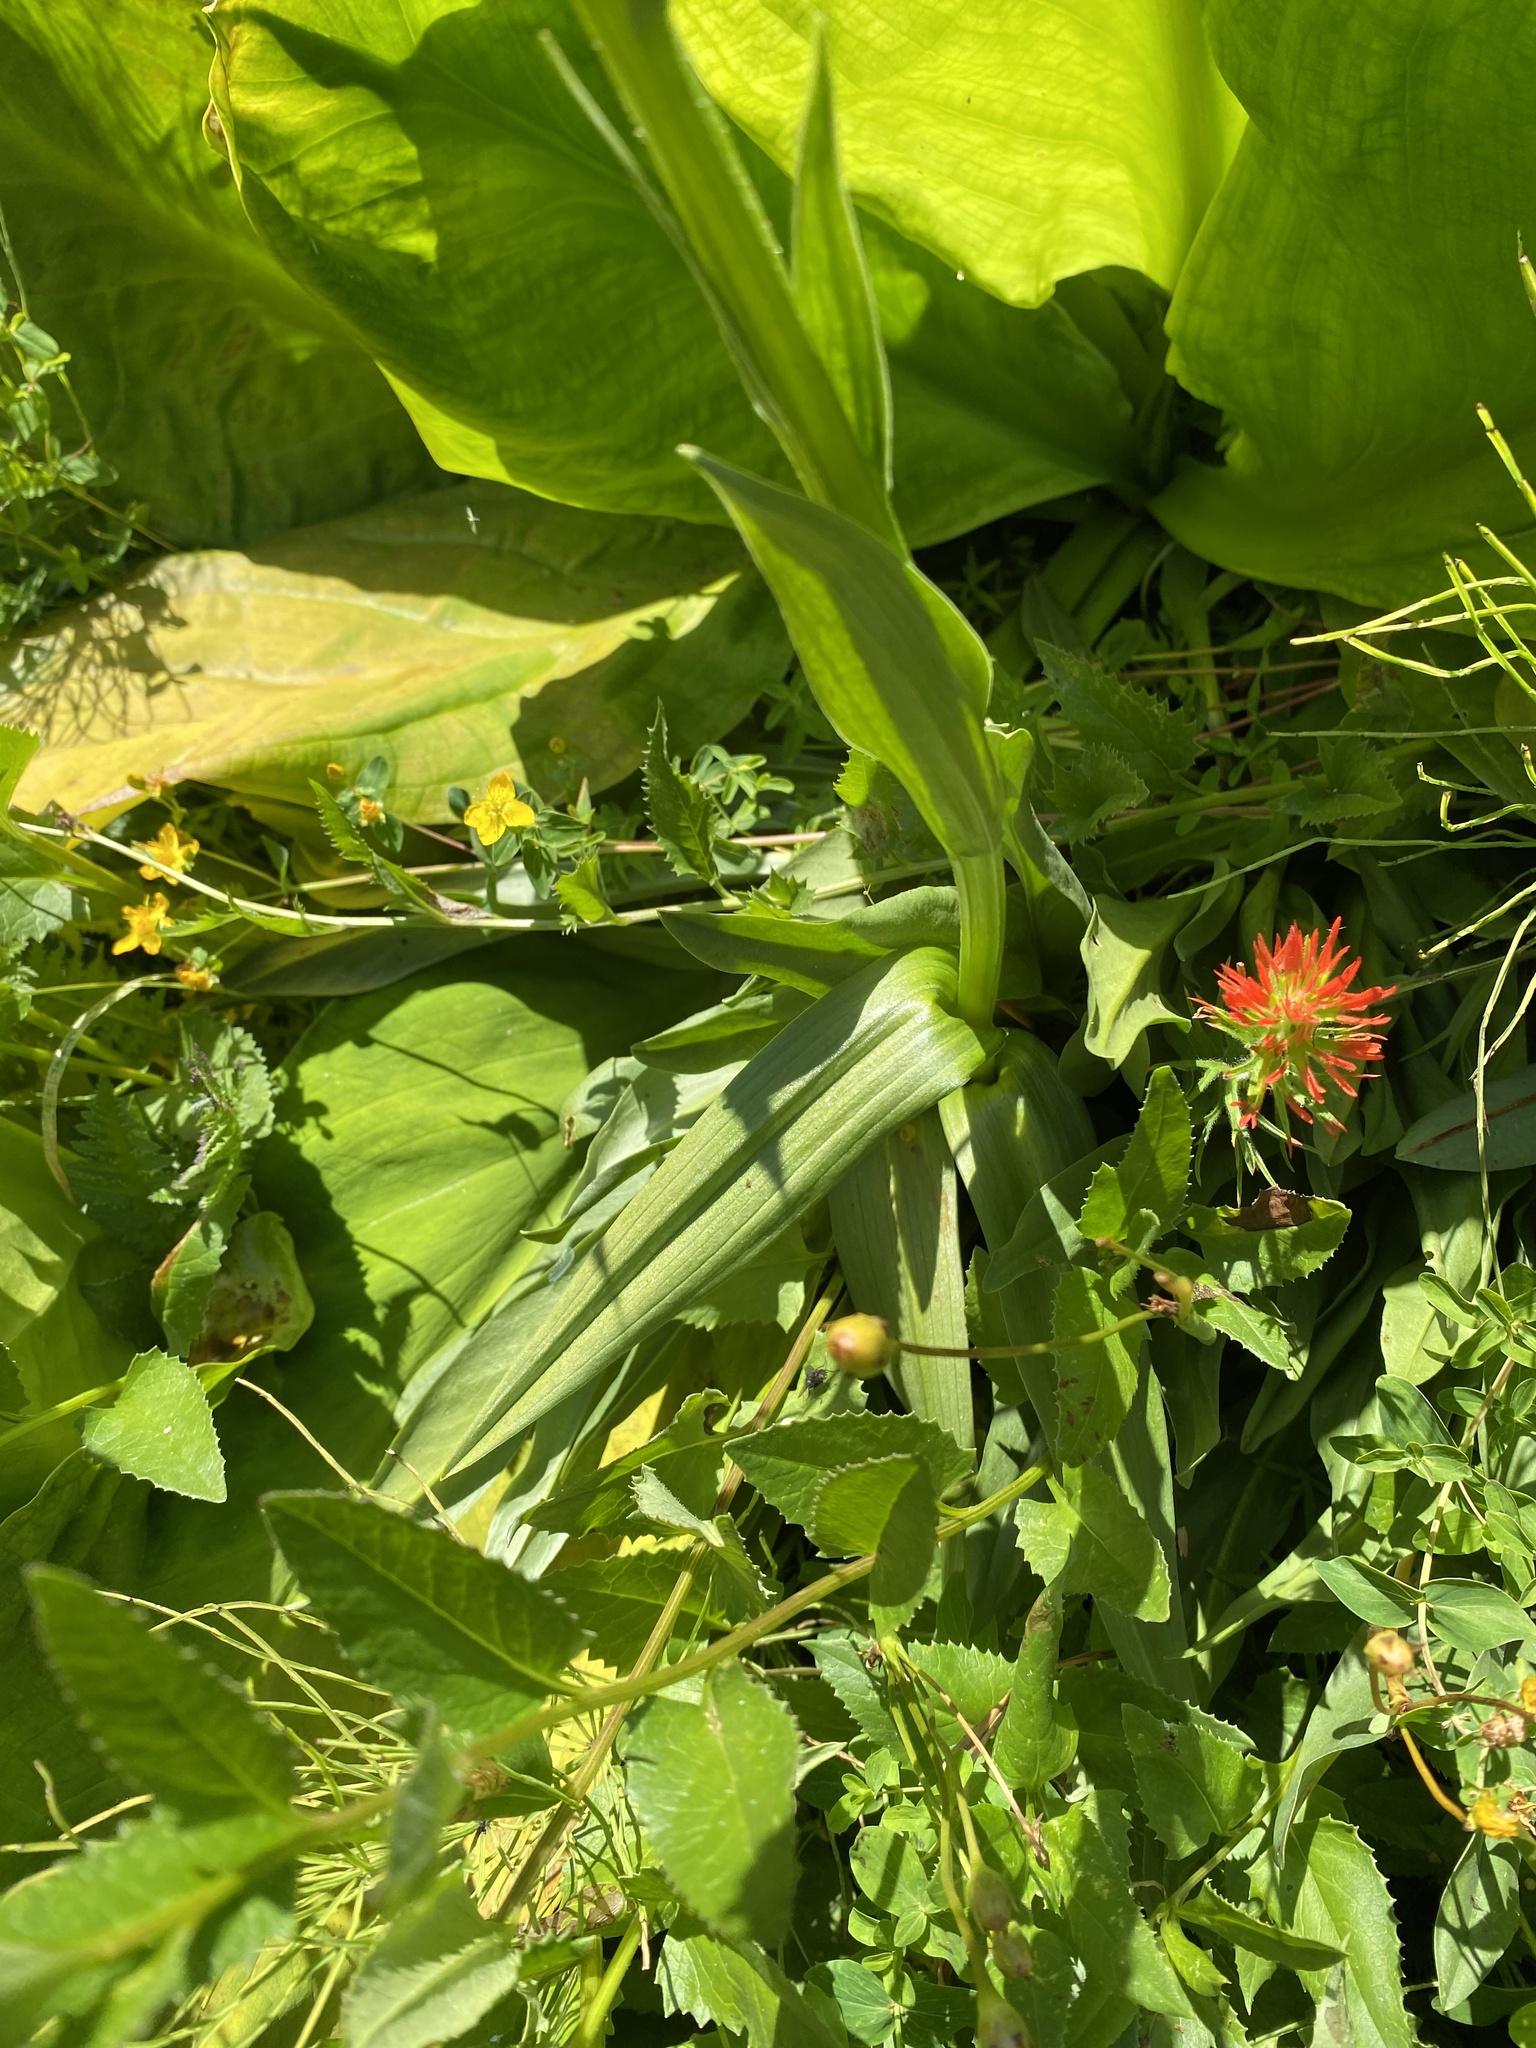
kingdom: Plantae
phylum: Tracheophyta
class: Liliopsida
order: Asparagales
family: Orchidaceae
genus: Platanthera
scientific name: Platanthera dilatata
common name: Bog candles
